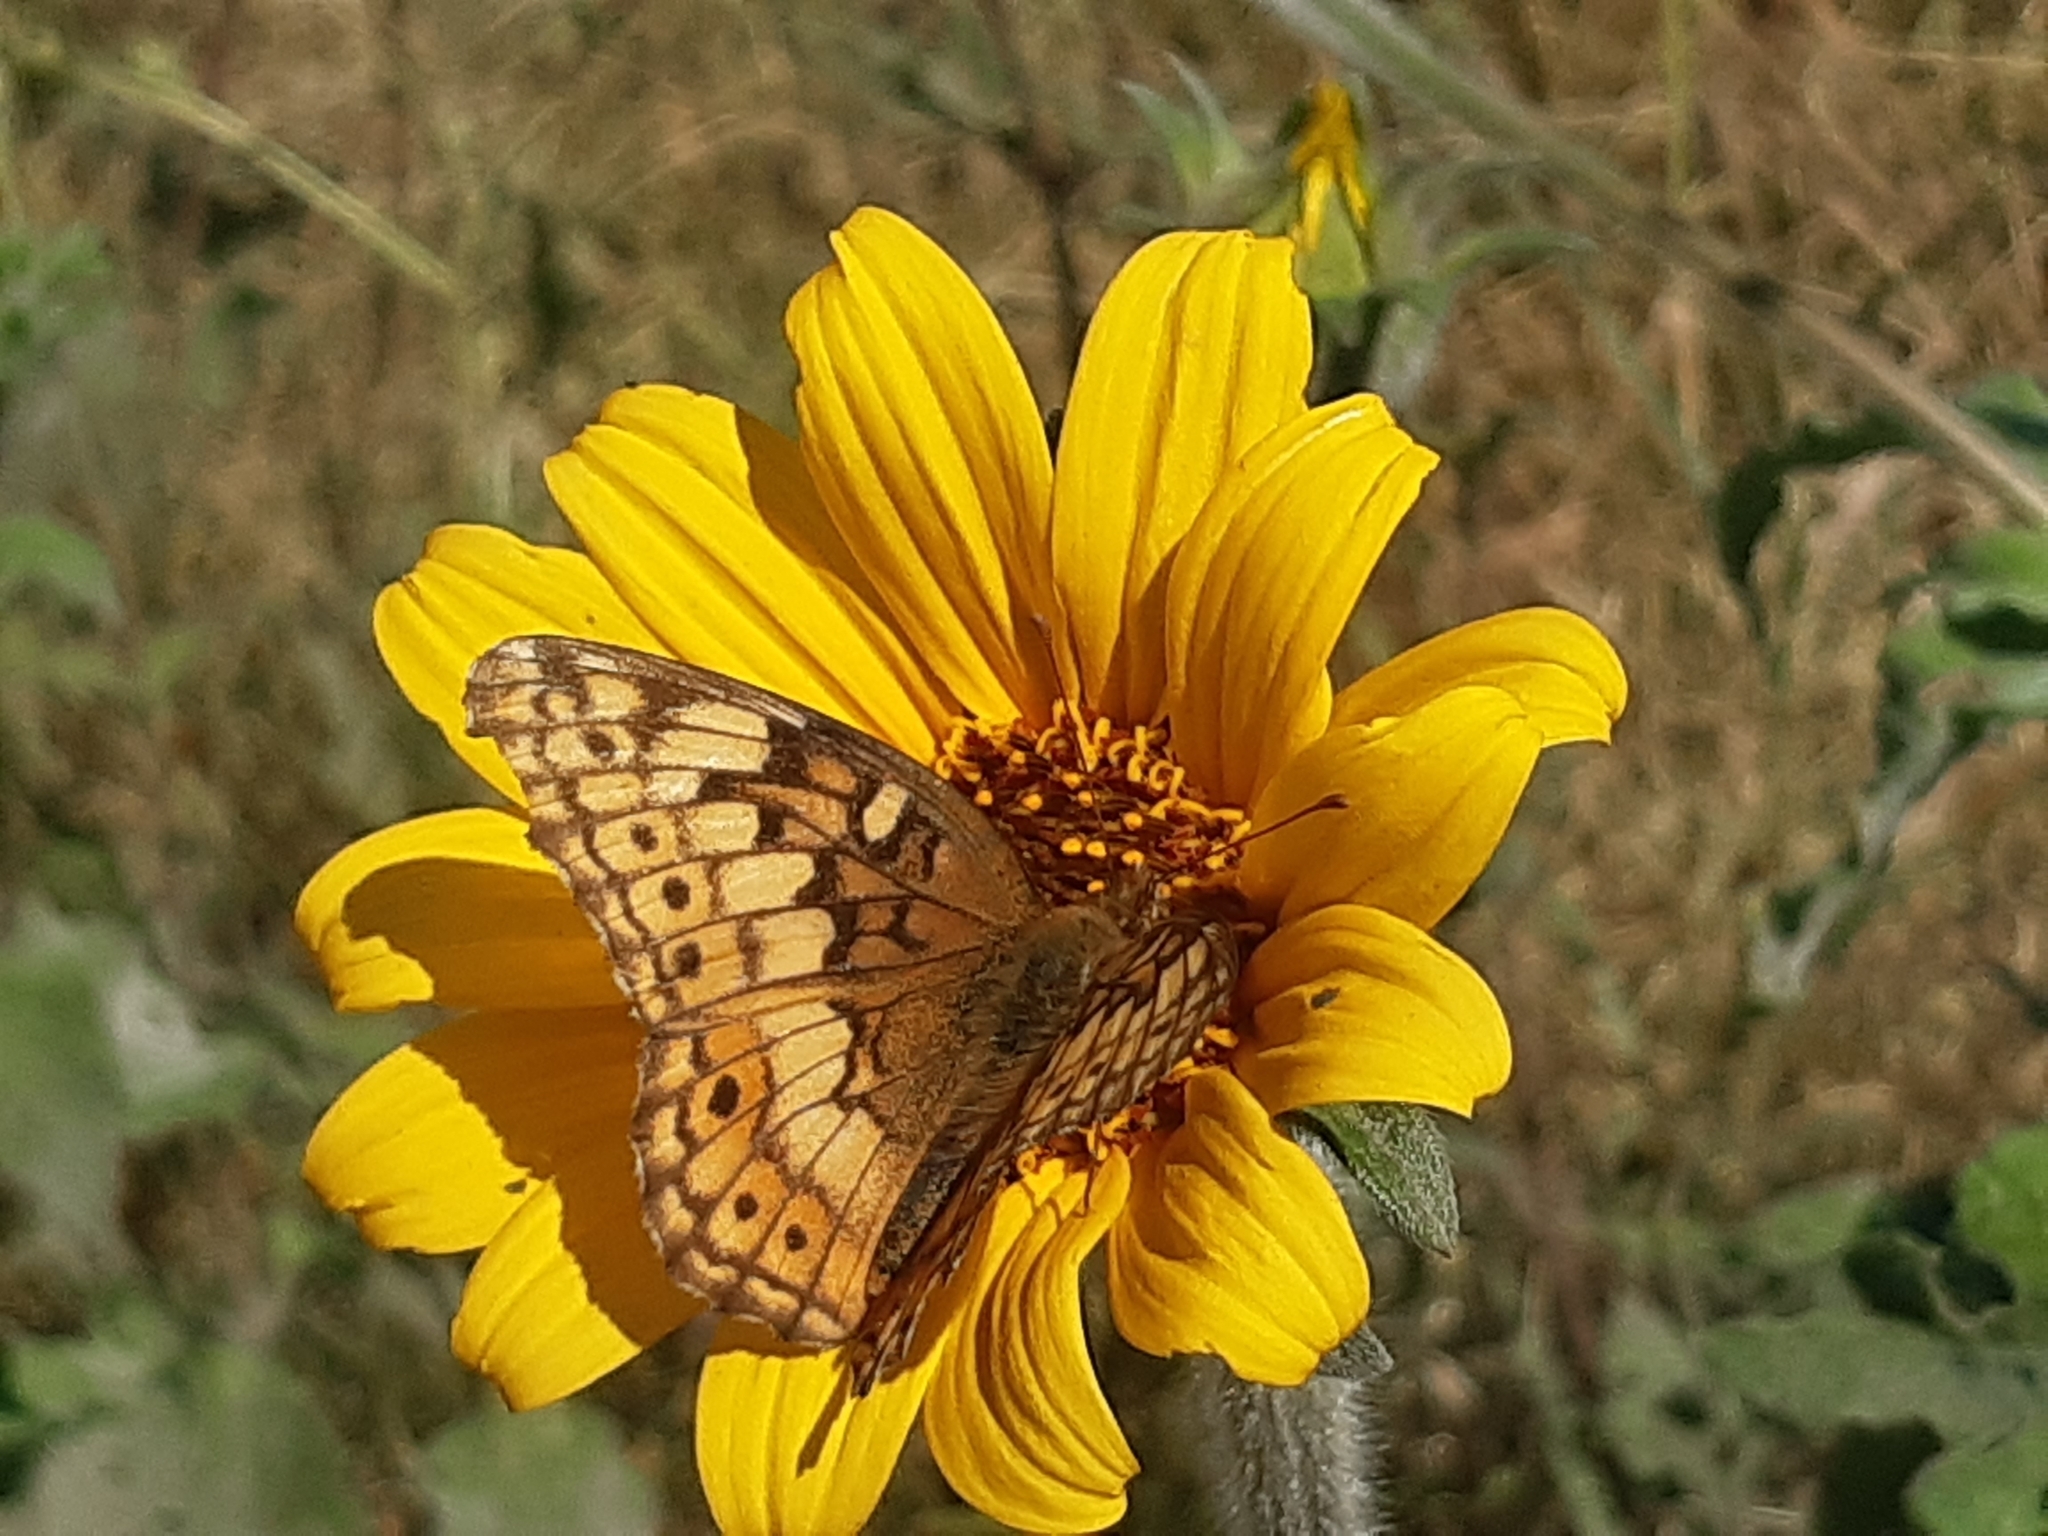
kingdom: Animalia
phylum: Arthropoda
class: Insecta
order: Lepidoptera
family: Nymphalidae
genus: Euptoieta
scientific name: Euptoieta claudia
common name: Variegated fritillary
